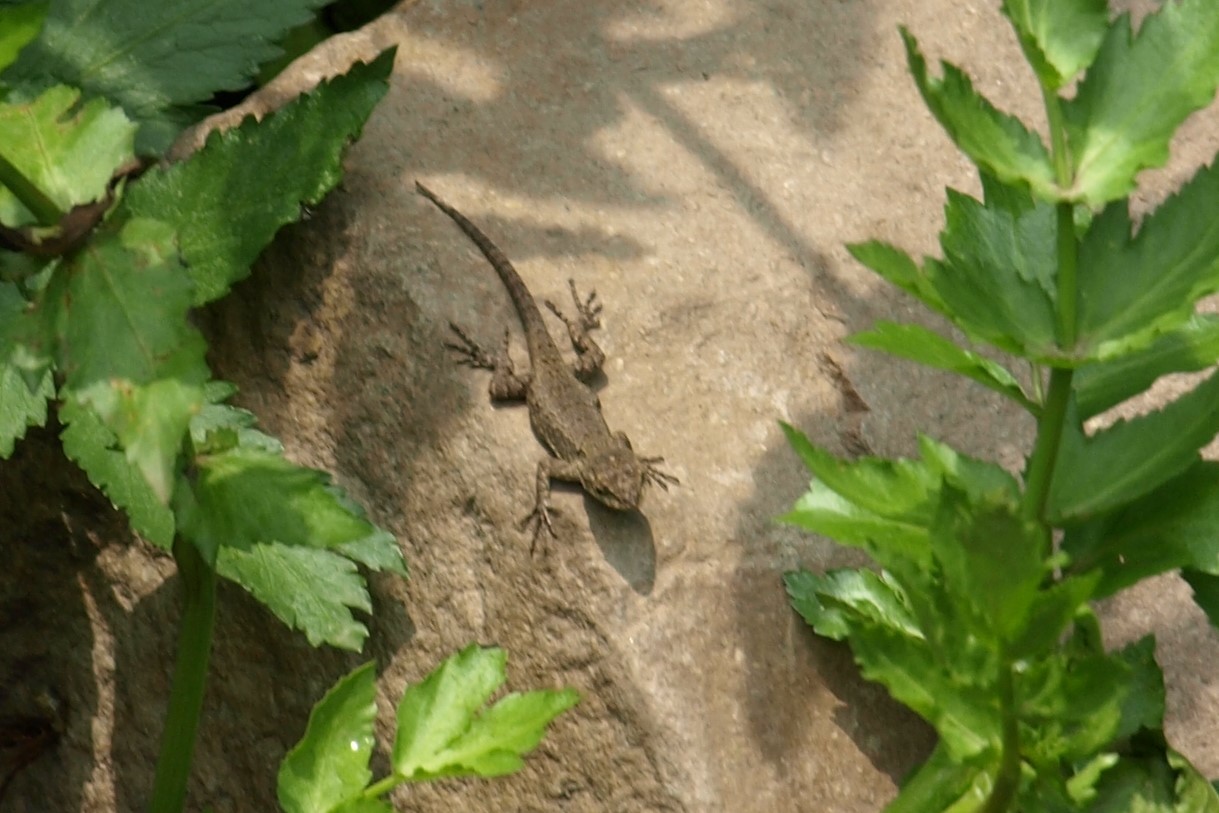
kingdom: Animalia
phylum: Chordata
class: Squamata
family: Phrynosomatidae
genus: Sceloporus
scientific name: Sceloporus grammicus
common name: Mesquite lizard
